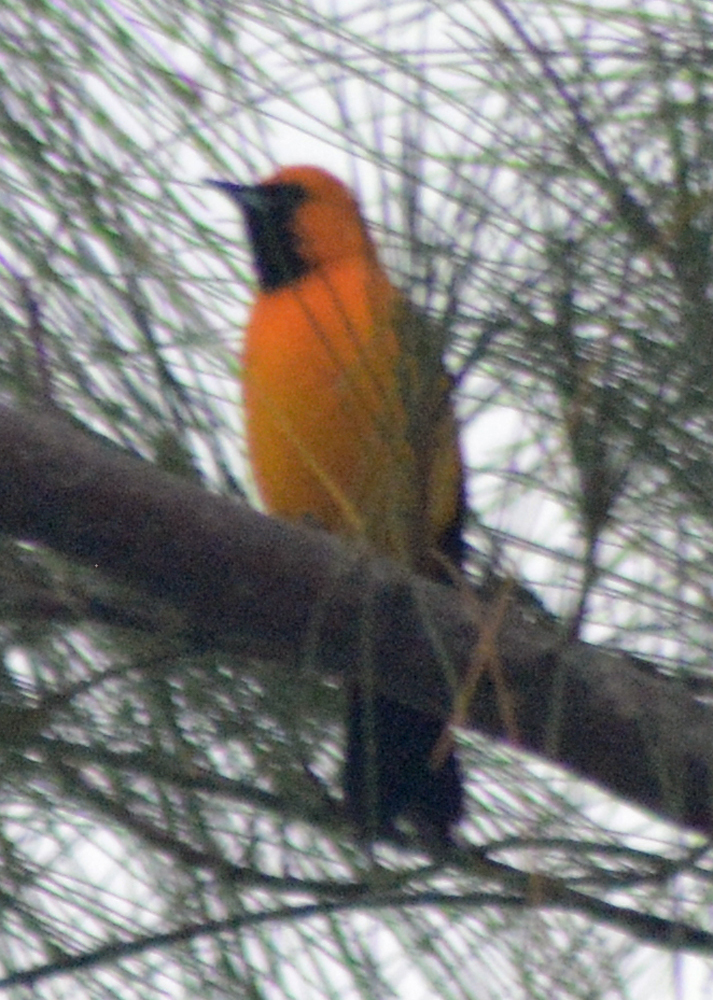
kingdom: Animalia
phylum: Chordata
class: Aves
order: Passeriformes
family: Icteridae
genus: Icterus
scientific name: Icterus gularis
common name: Altamira oriole
